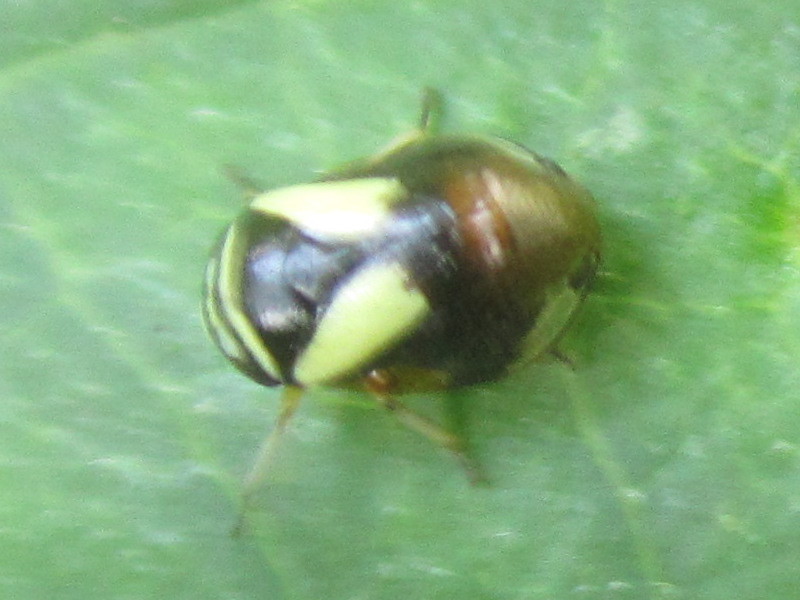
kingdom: Animalia
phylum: Arthropoda
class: Insecta
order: Hemiptera
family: Clastopteridae
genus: Clastoptera
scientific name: Clastoptera proteus
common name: Dogwood spittlebug
